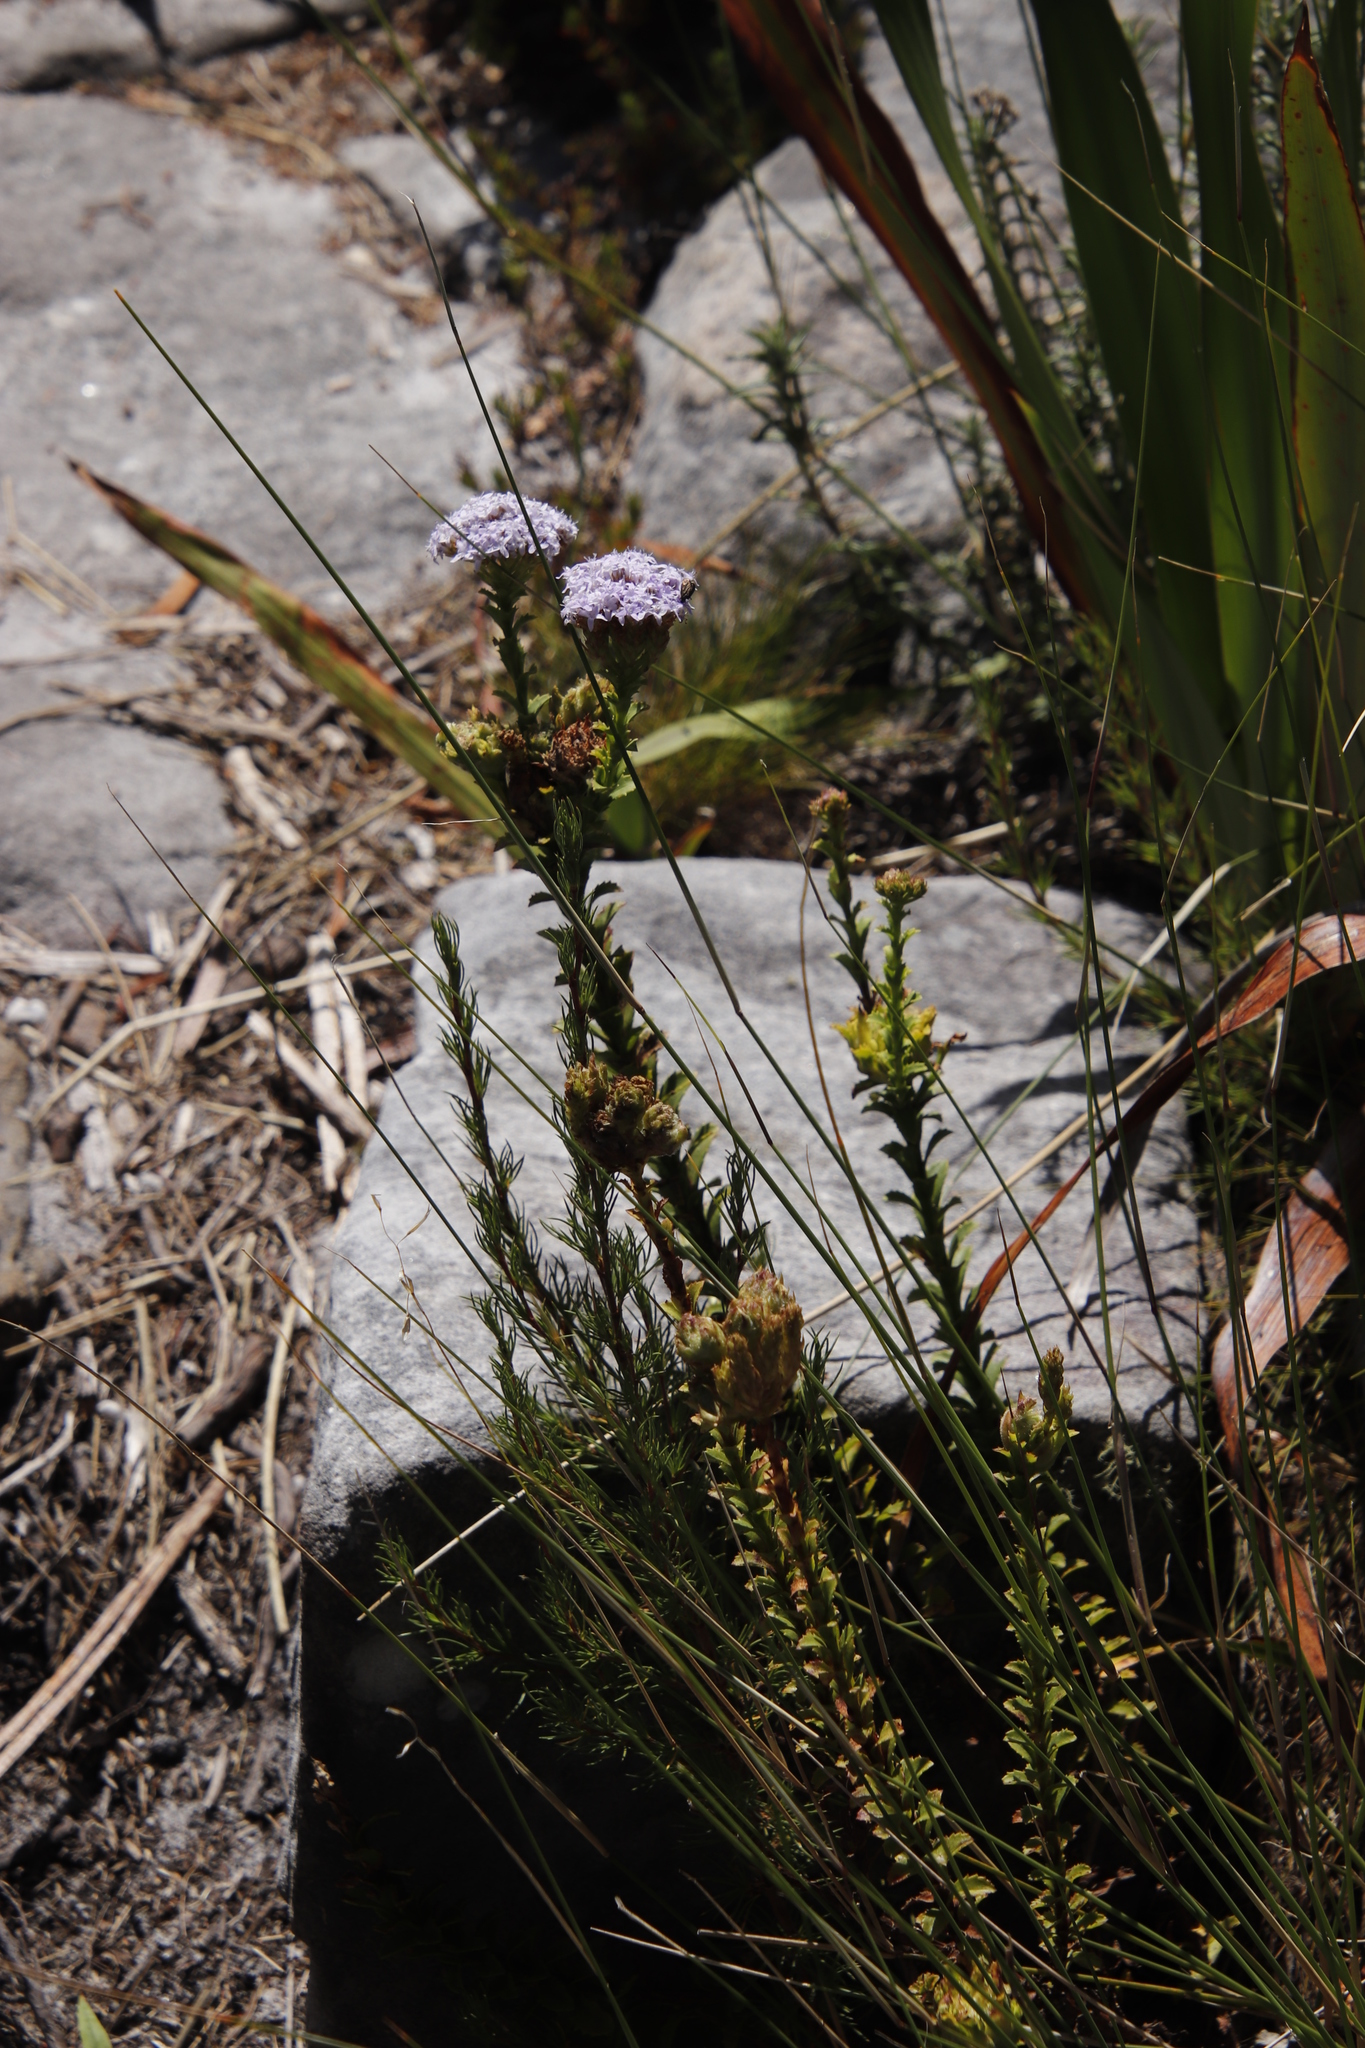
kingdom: Plantae
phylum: Tracheophyta
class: Magnoliopsida
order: Lamiales
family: Scrophulariaceae
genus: Pseudoselago
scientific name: Pseudoselago serrata
